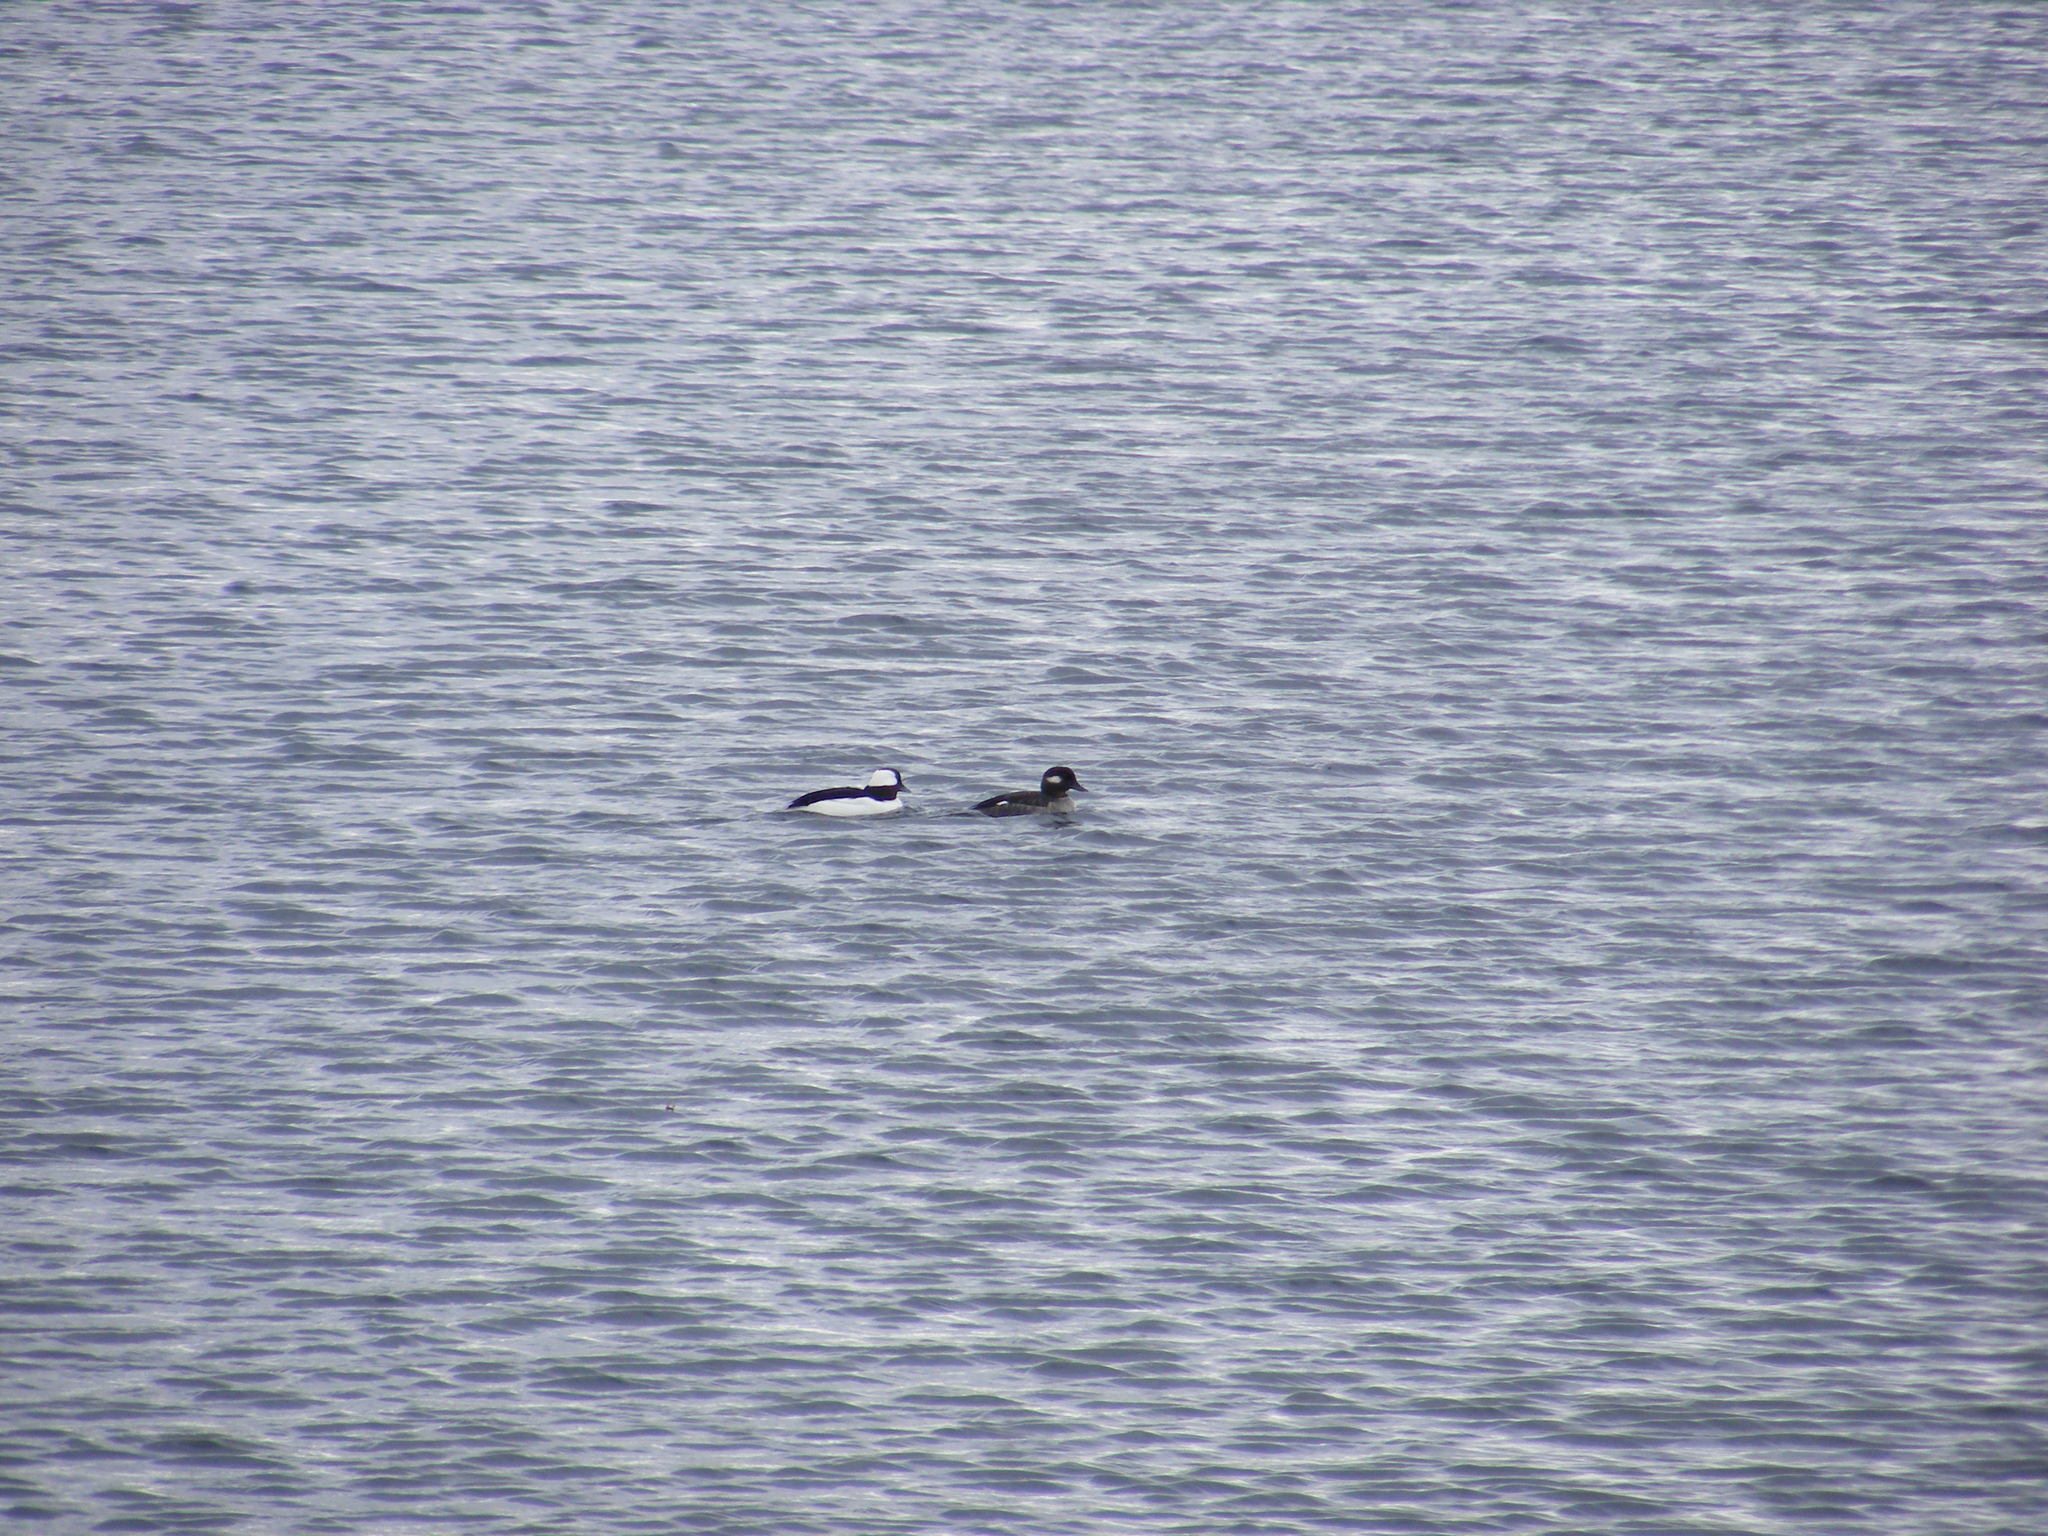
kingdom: Animalia
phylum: Chordata
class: Aves
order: Anseriformes
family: Anatidae
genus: Bucephala
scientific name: Bucephala albeola
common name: Bufflehead
